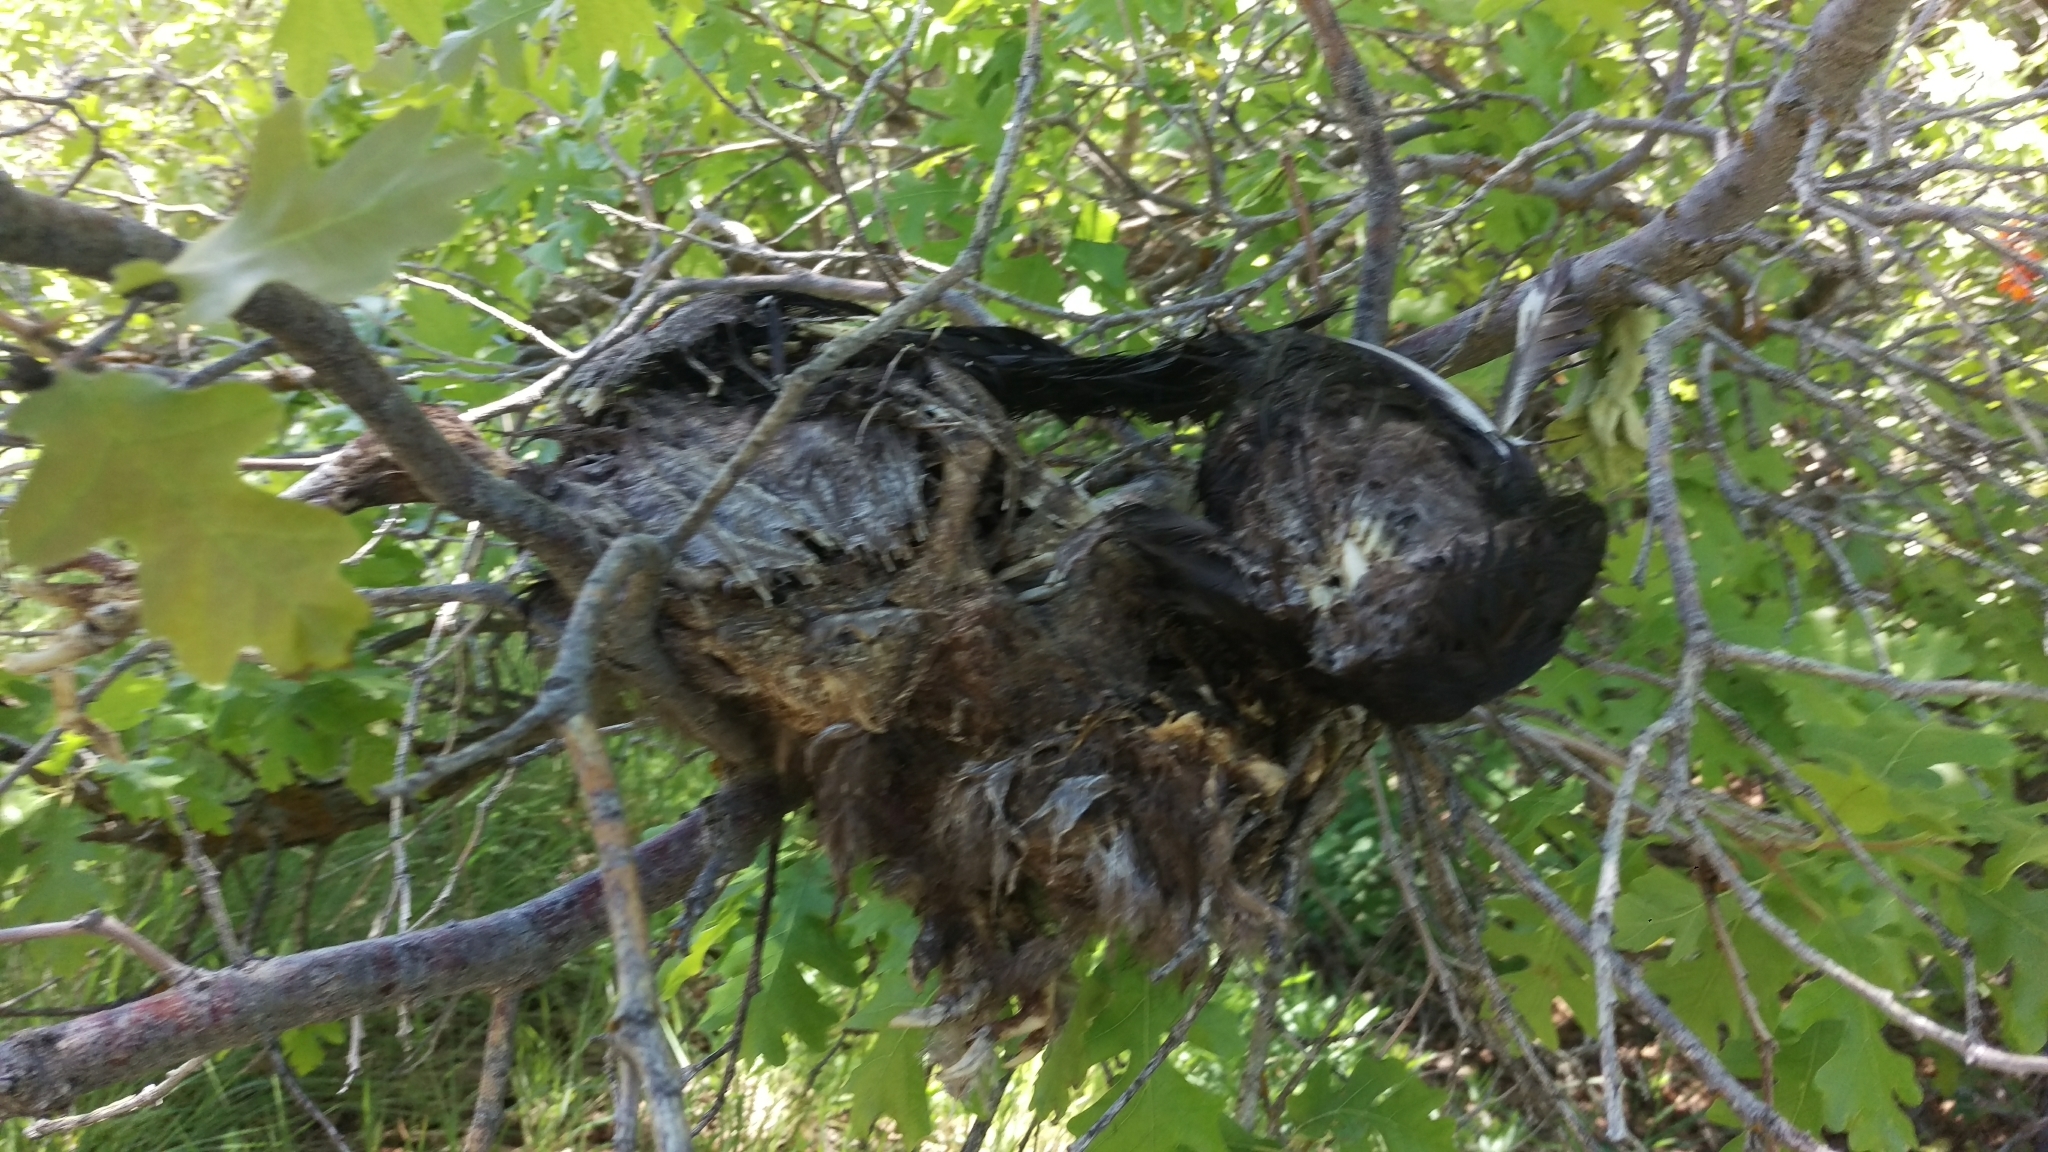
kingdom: Animalia
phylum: Chordata
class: Aves
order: Accipitriformes
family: Cathartidae
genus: Cathartes
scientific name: Cathartes aura
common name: Turkey vulture
